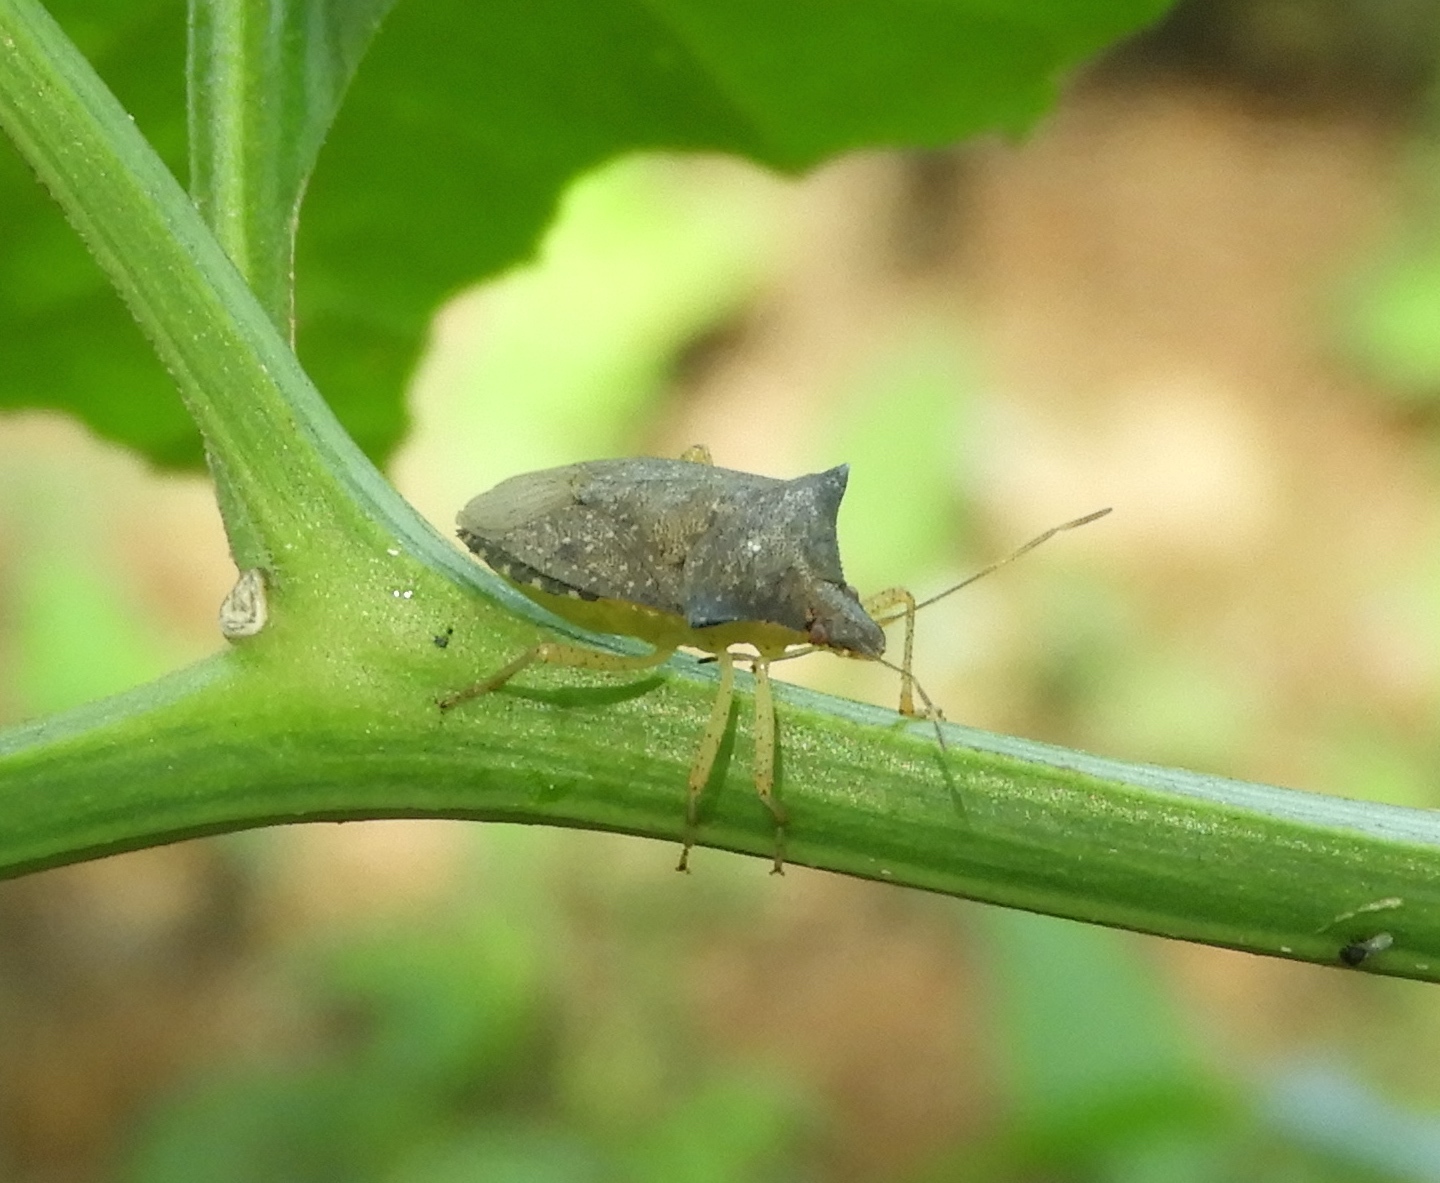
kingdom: Animalia
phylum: Arthropoda
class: Insecta
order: Hemiptera
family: Pentatomidae
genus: Euschistus
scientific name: Euschistus
